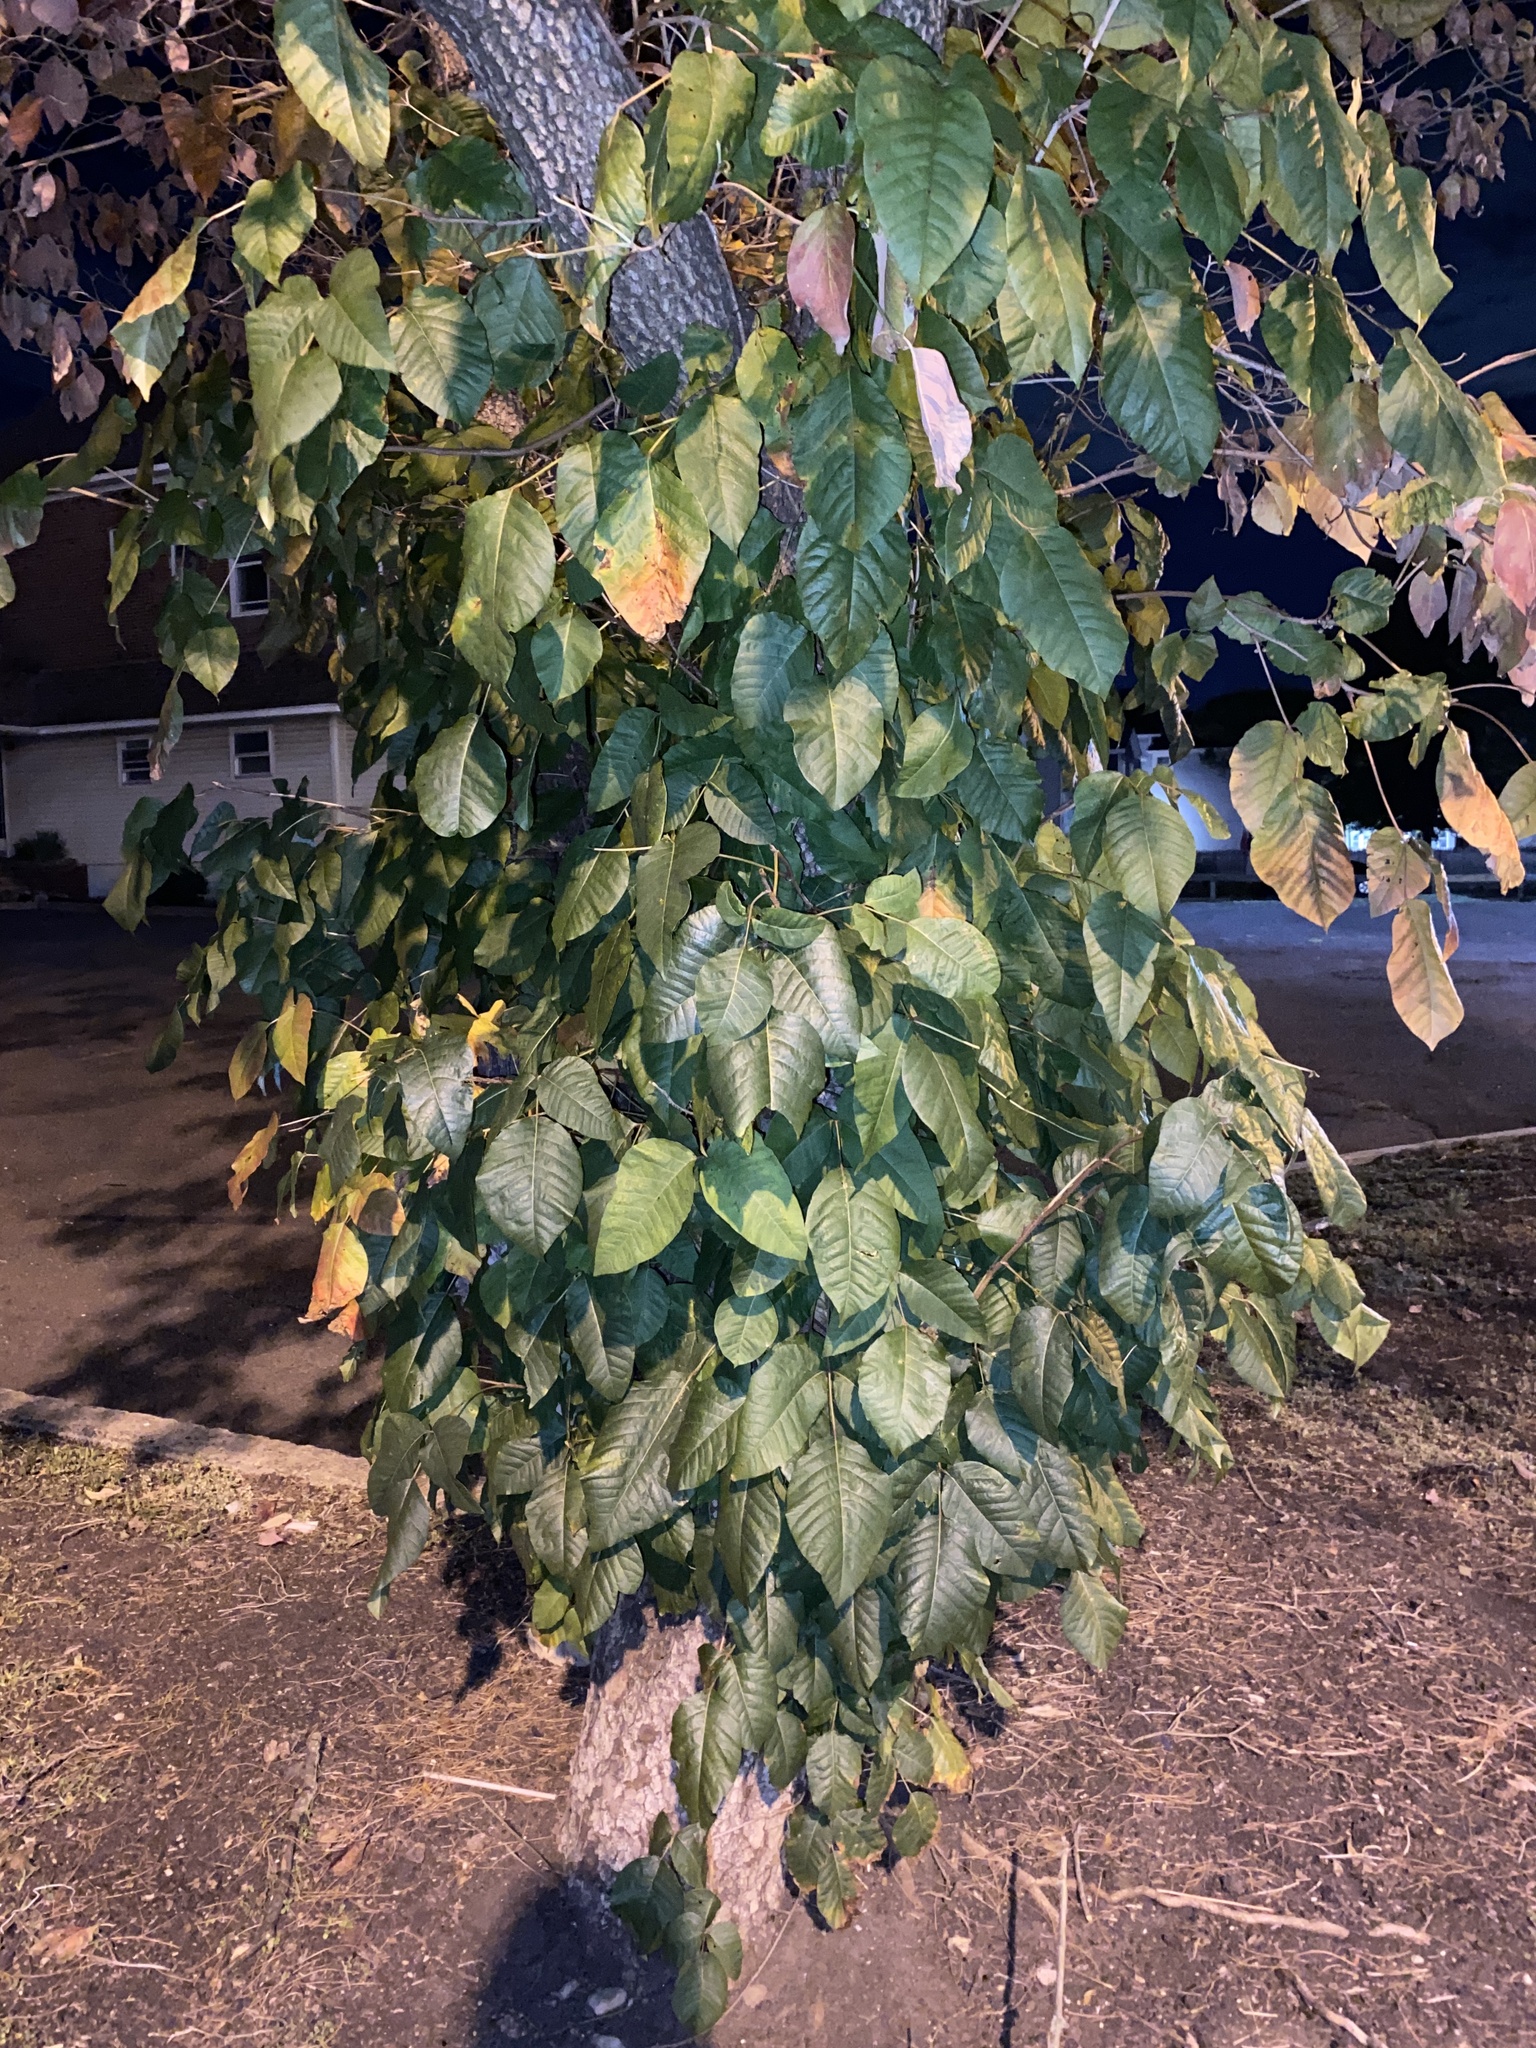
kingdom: Plantae
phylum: Tracheophyta
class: Magnoliopsida
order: Sapindales
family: Anacardiaceae
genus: Toxicodendron
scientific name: Toxicodendron radicans
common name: Poison ivy
